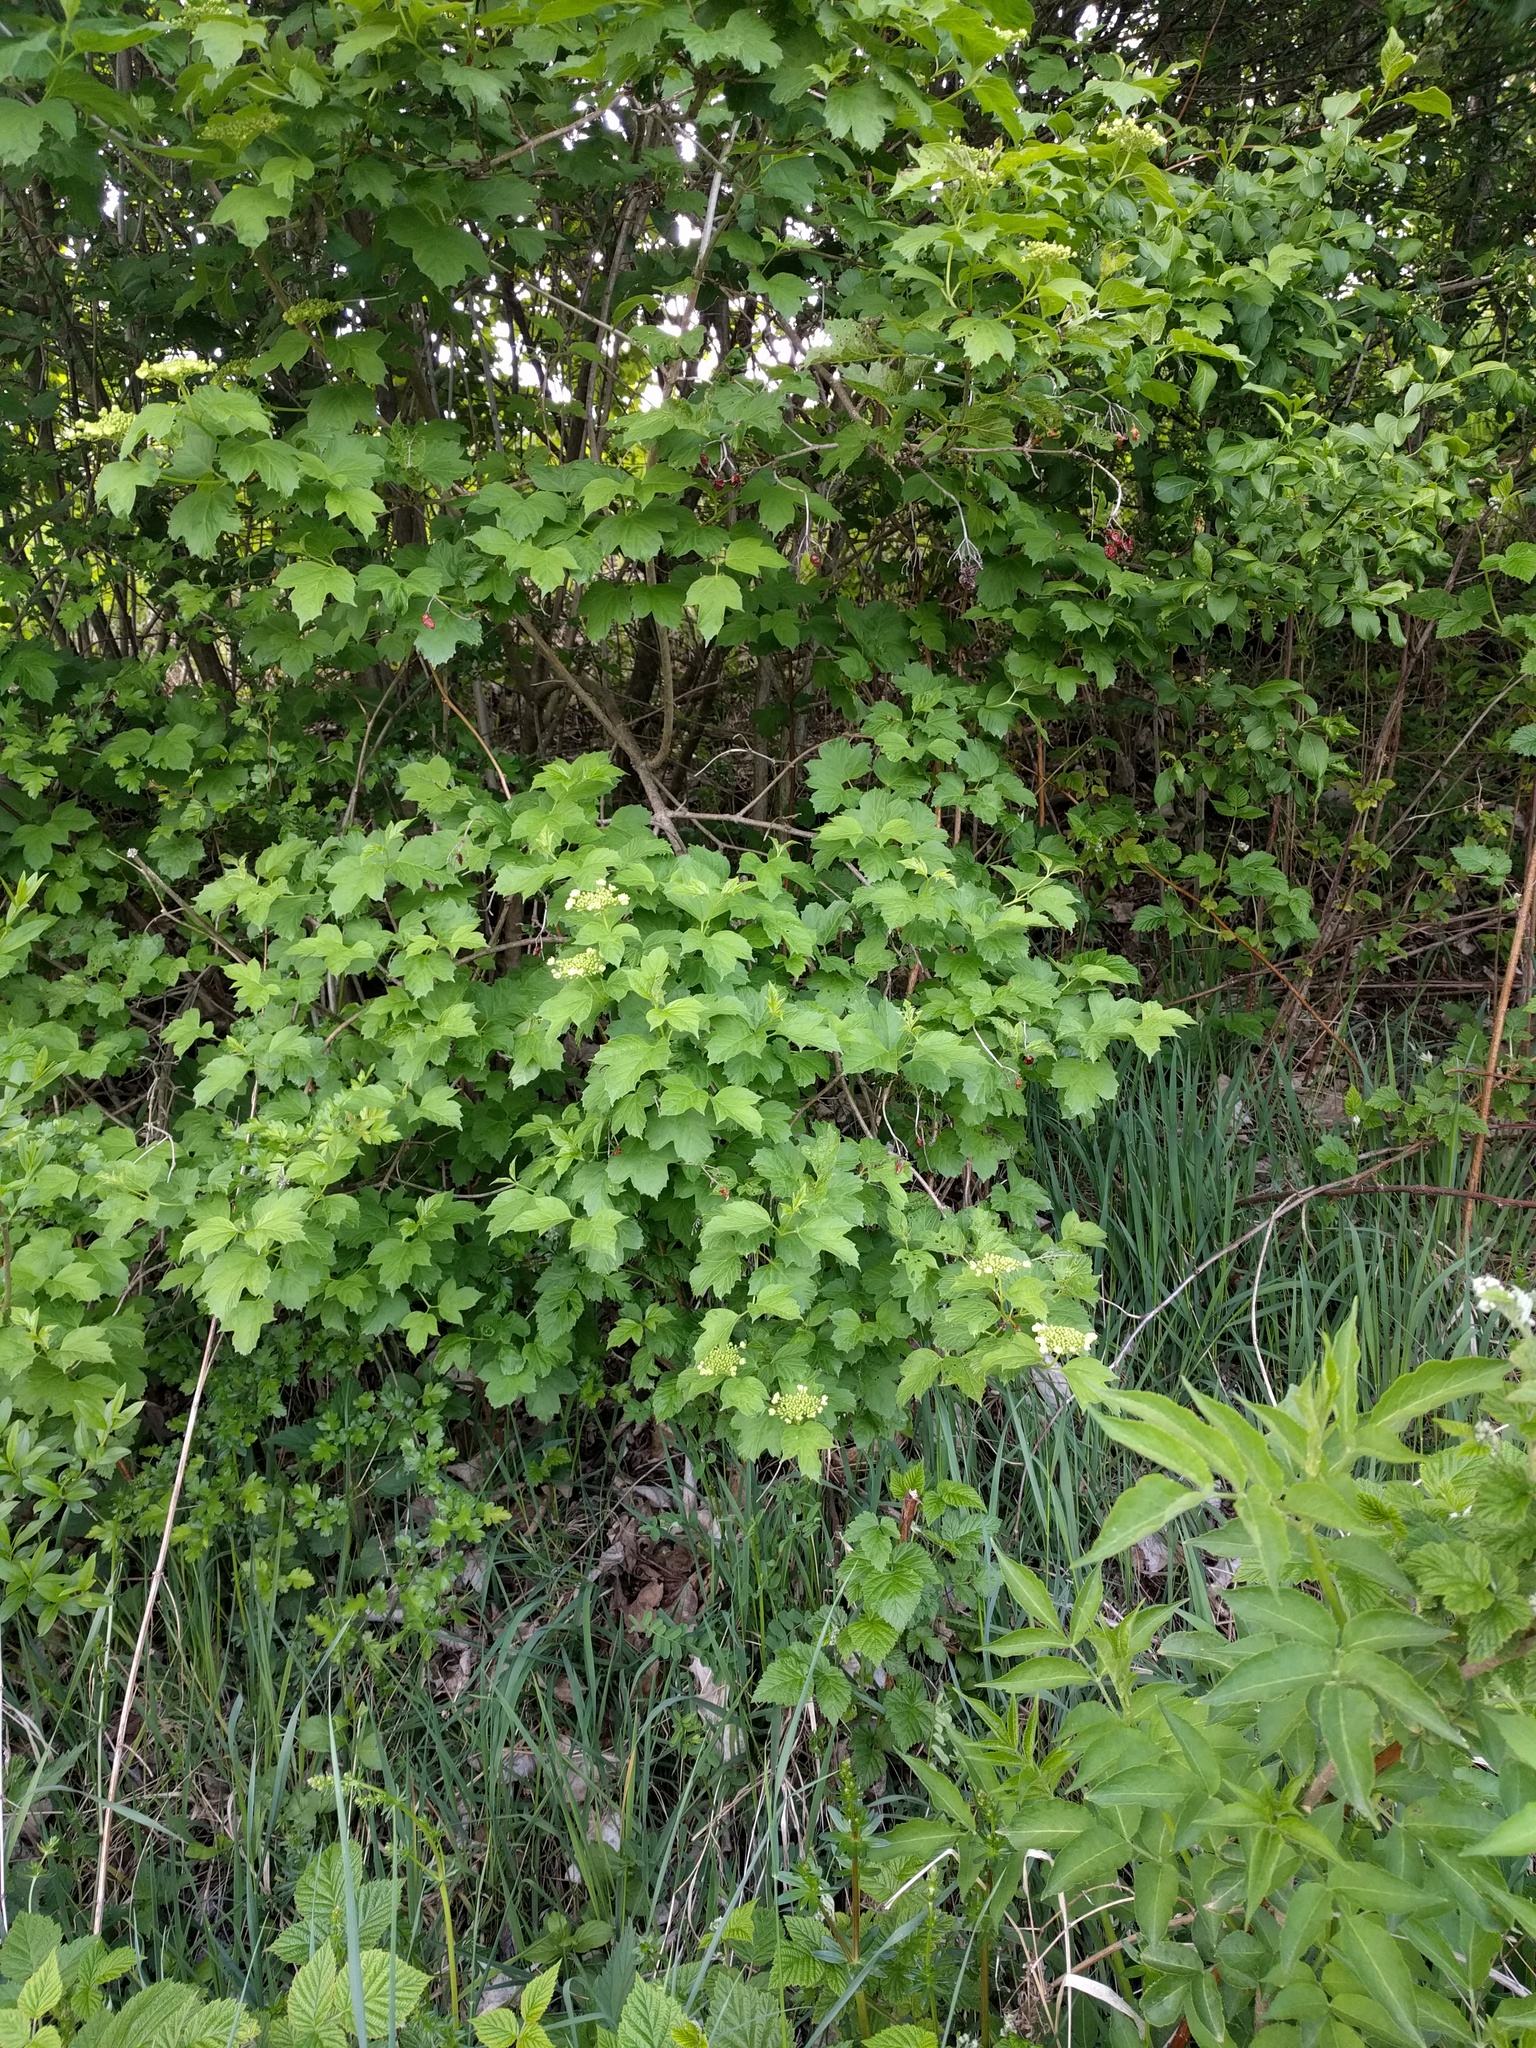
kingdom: Plantae
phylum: Tracheophyta
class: Magnoliopsida
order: Dipsacales
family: Viburnaceae
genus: Viburnum
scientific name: Viburnum opulus
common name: Guelder-rose
